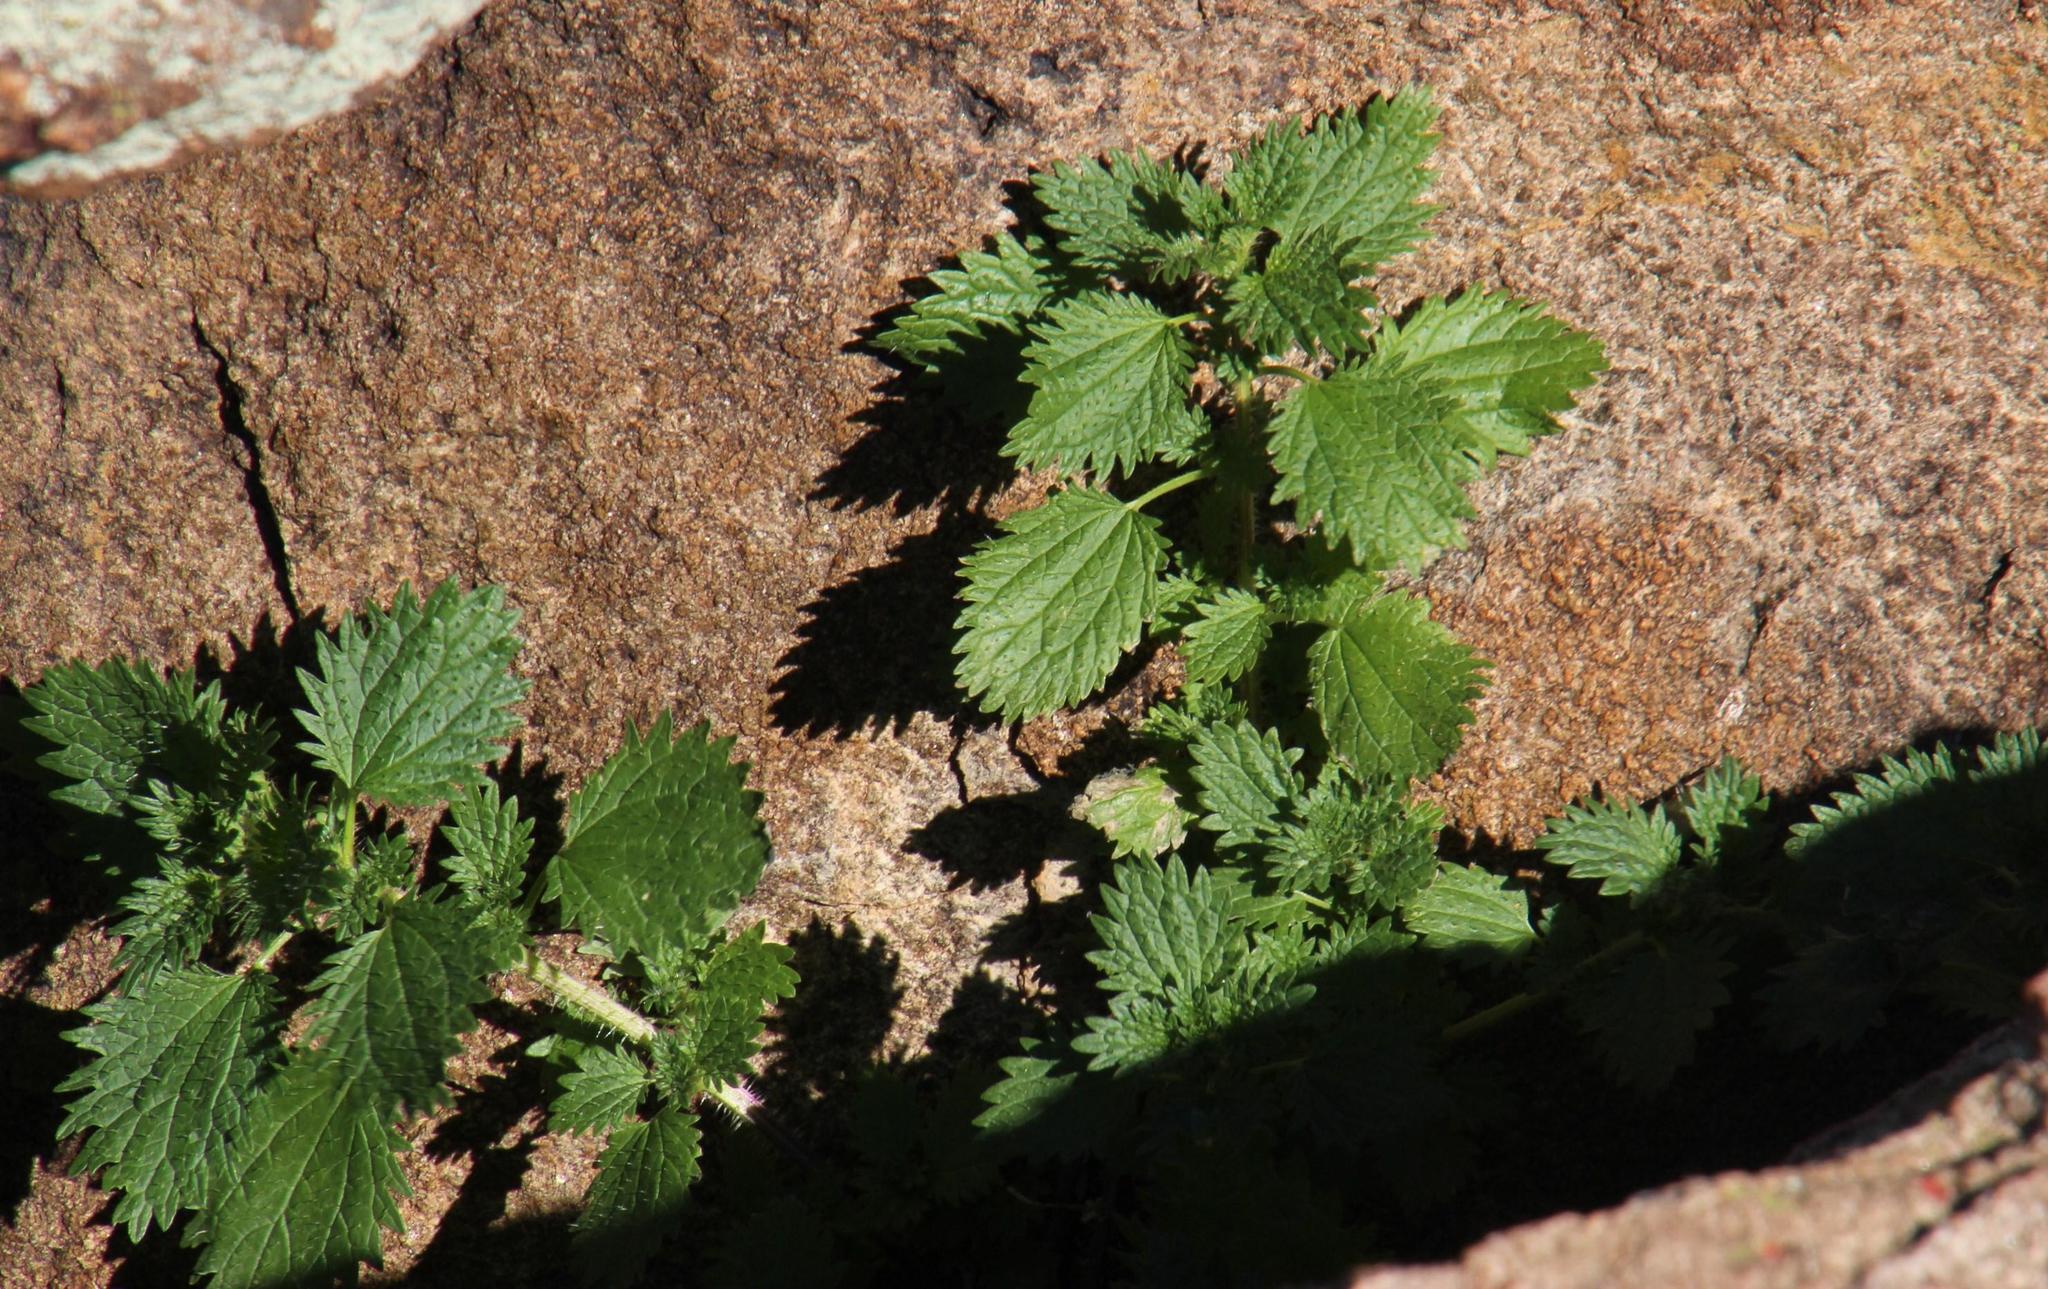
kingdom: Plantae
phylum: Tracheophyta
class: Magnoliopsida
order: Rosales
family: Urticaceae
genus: Urtica
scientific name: Urtica urens
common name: Dwarf nettle
